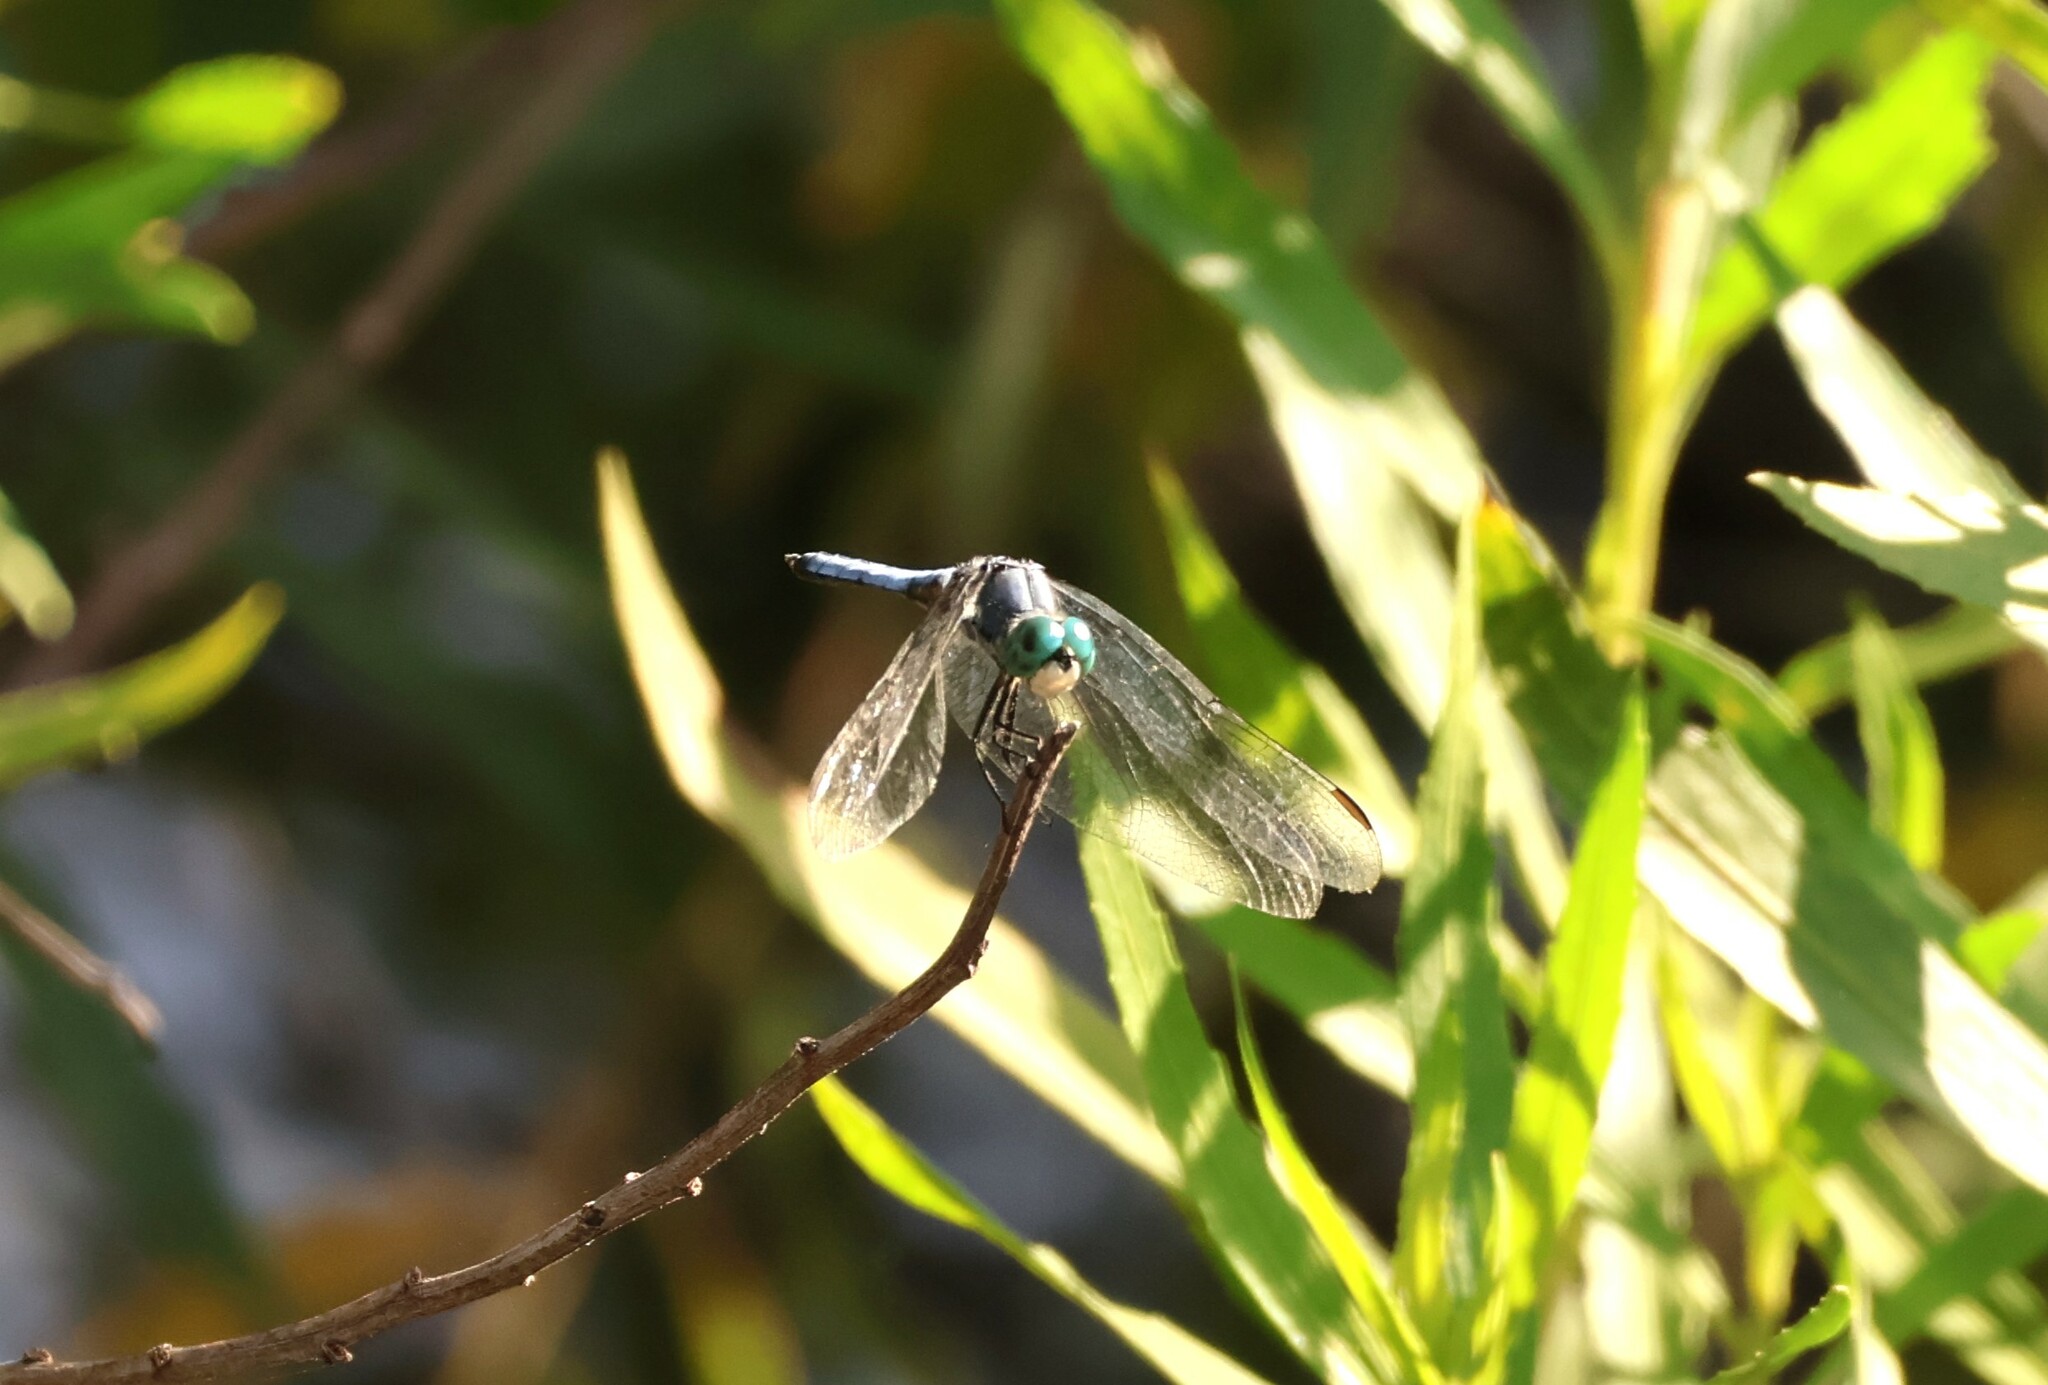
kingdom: Animalia
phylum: Arthropoda
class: Insecta
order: Odonata
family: Libellulidae
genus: Pachydiplax
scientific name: Pachydiplax longipennis
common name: Blue dasher
